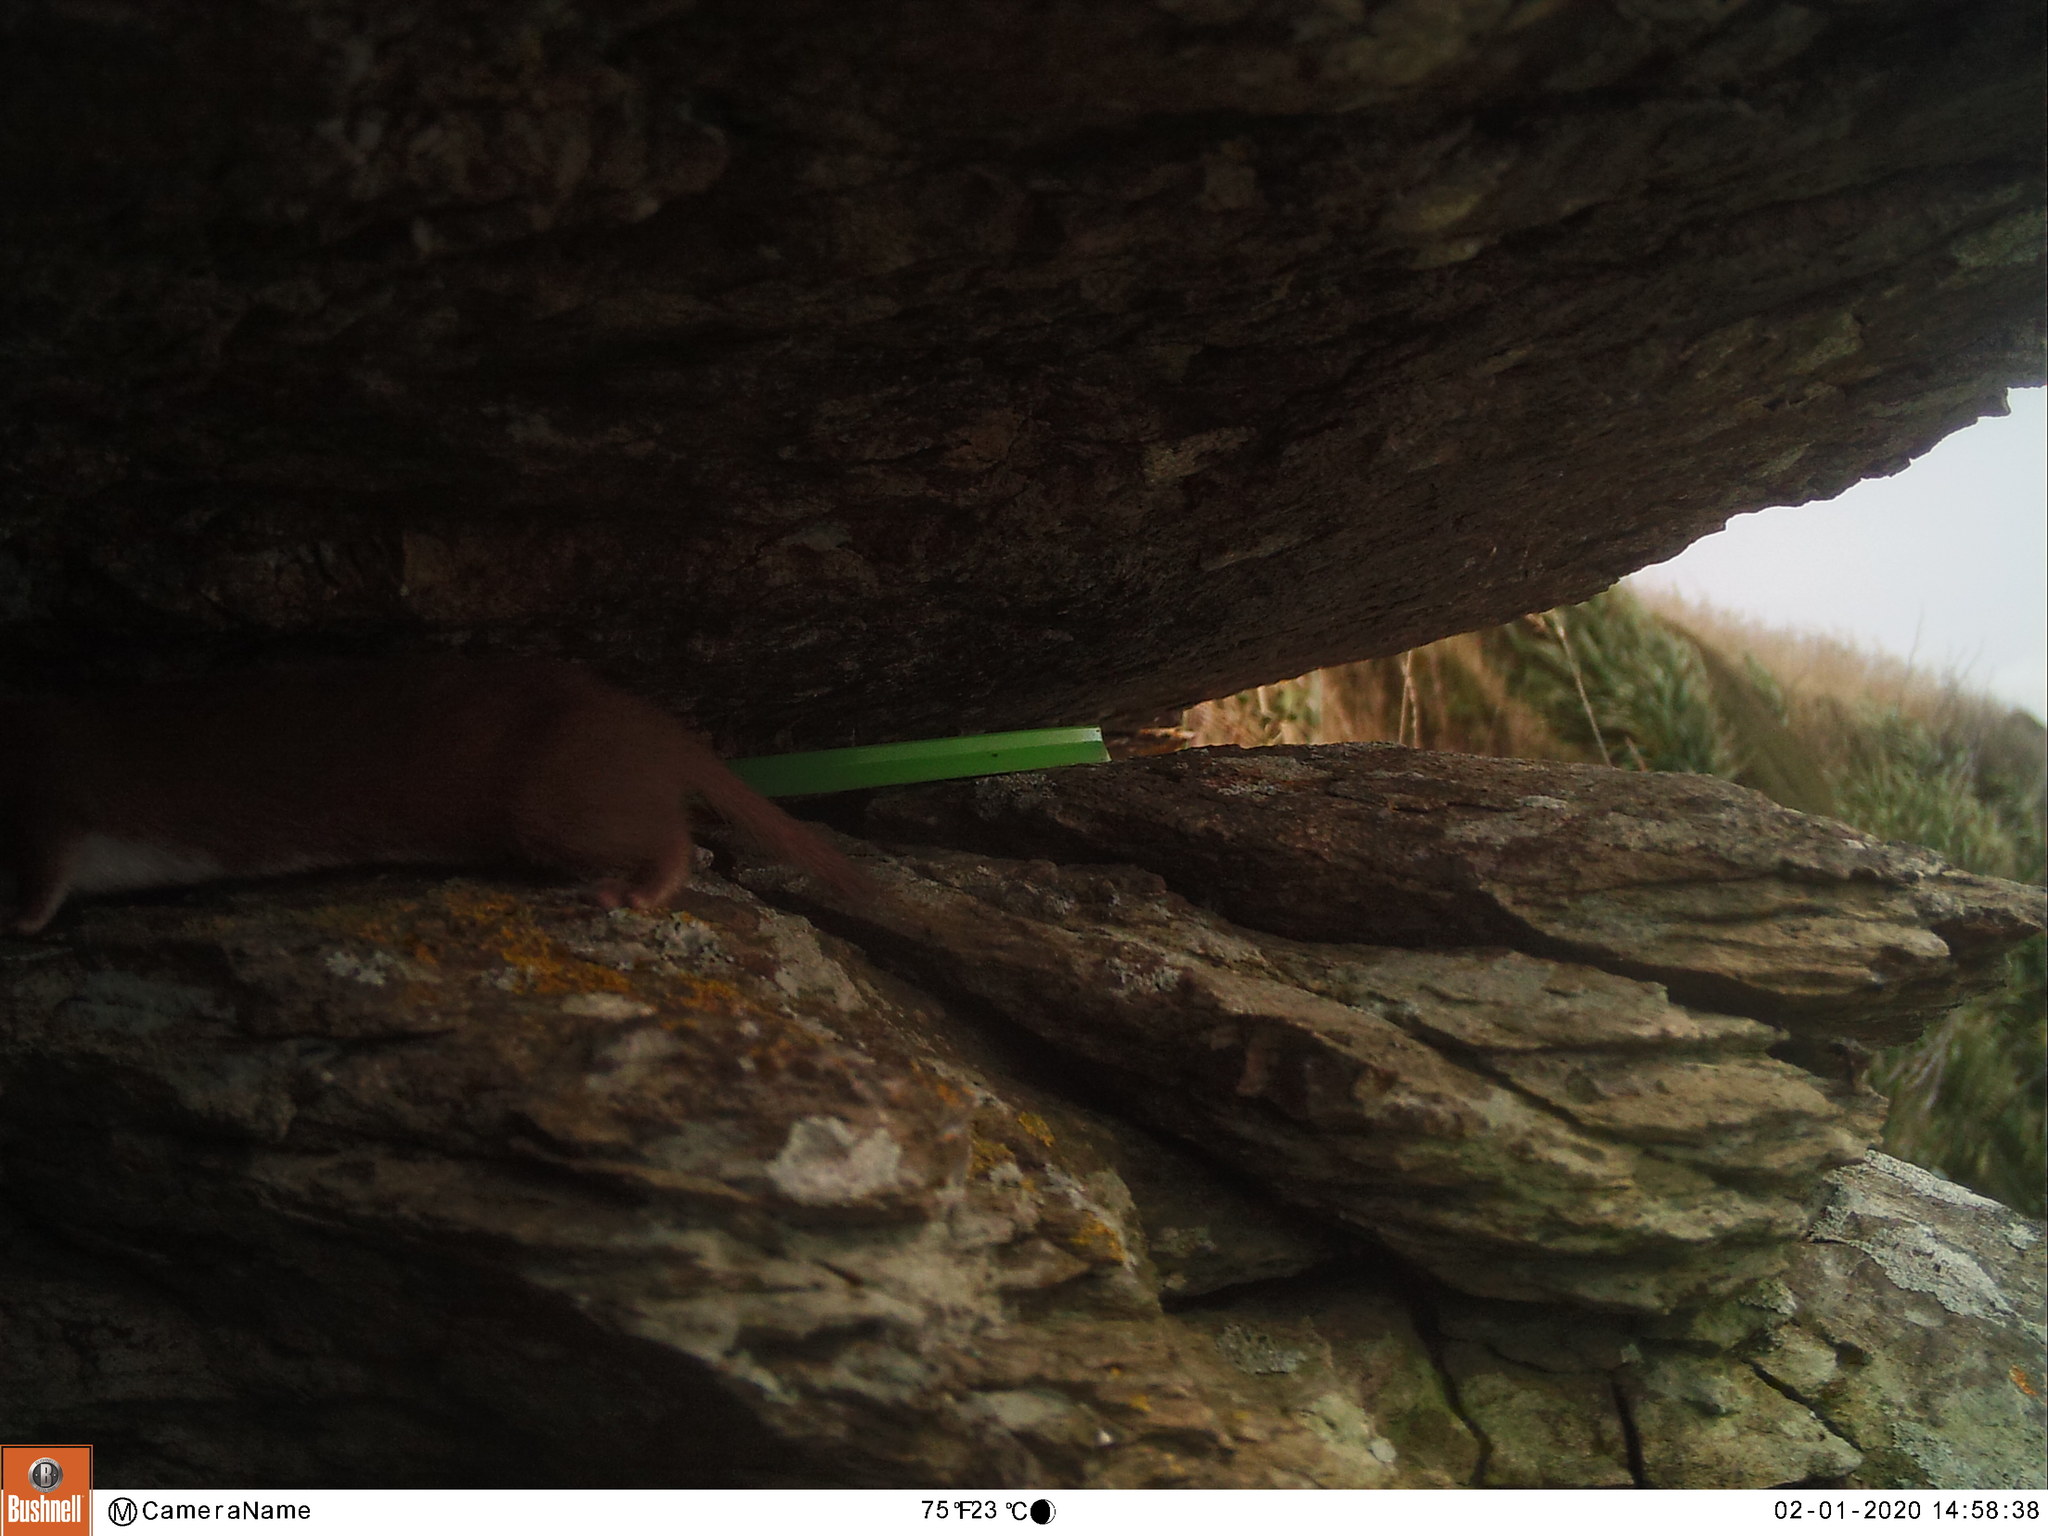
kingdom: Animalia
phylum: Chordata
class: Mammalia
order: Carnivora
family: Mustelidae
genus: Mustela
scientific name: Mustela nivalis
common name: Least weasel
